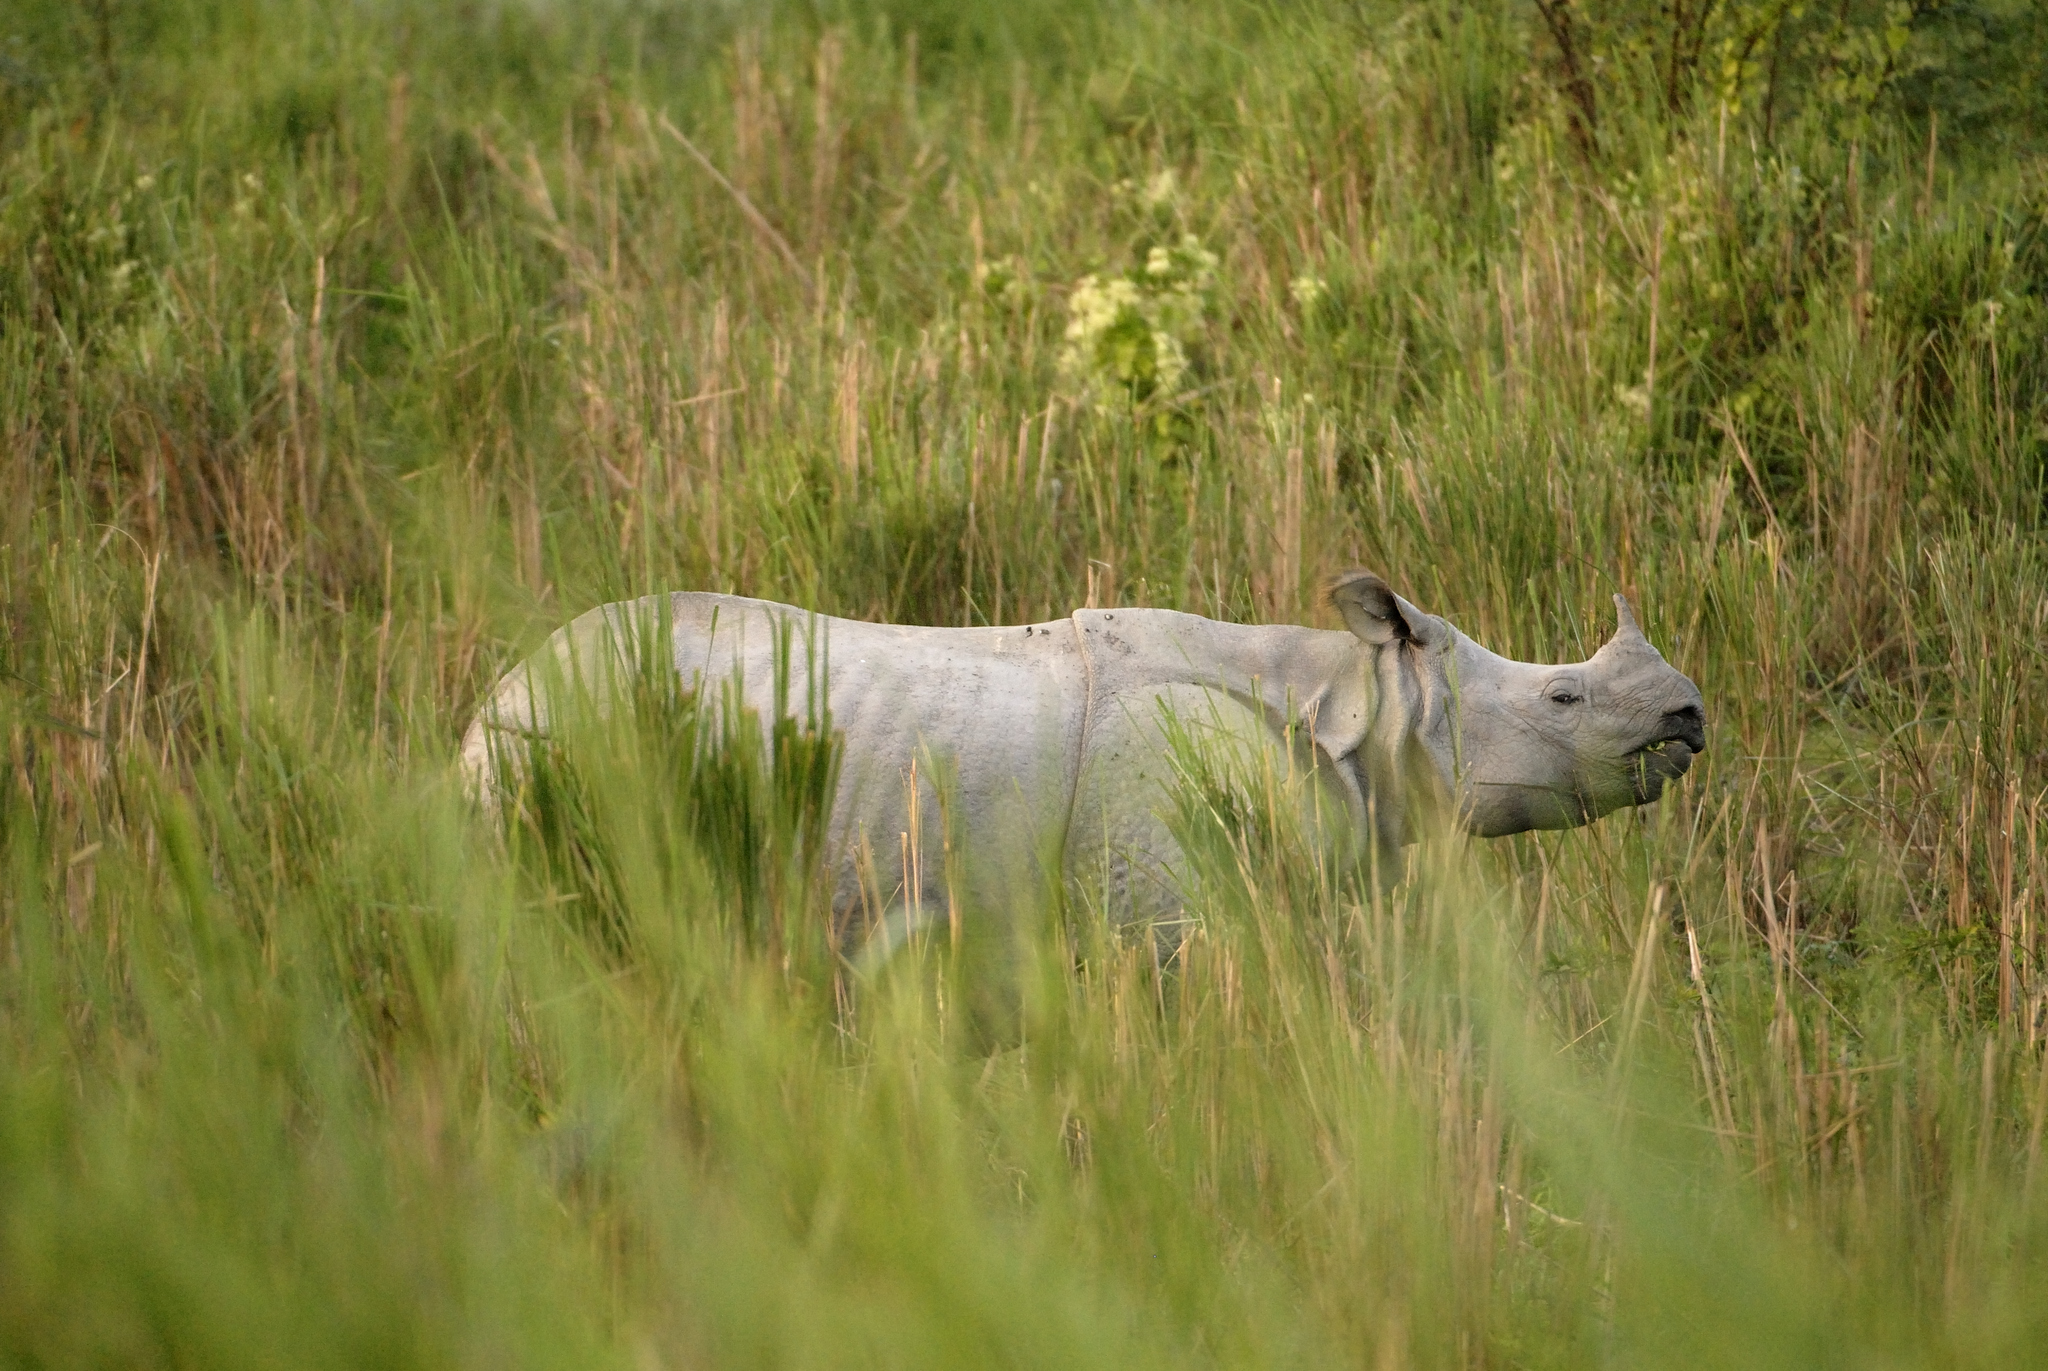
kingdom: Animalia
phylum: Chordata
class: Mammalia
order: Perissodactyla
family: Rhinocerotidae
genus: Rhinoceros
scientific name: Rhinoceros unicornis
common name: Indian rhinoceros
